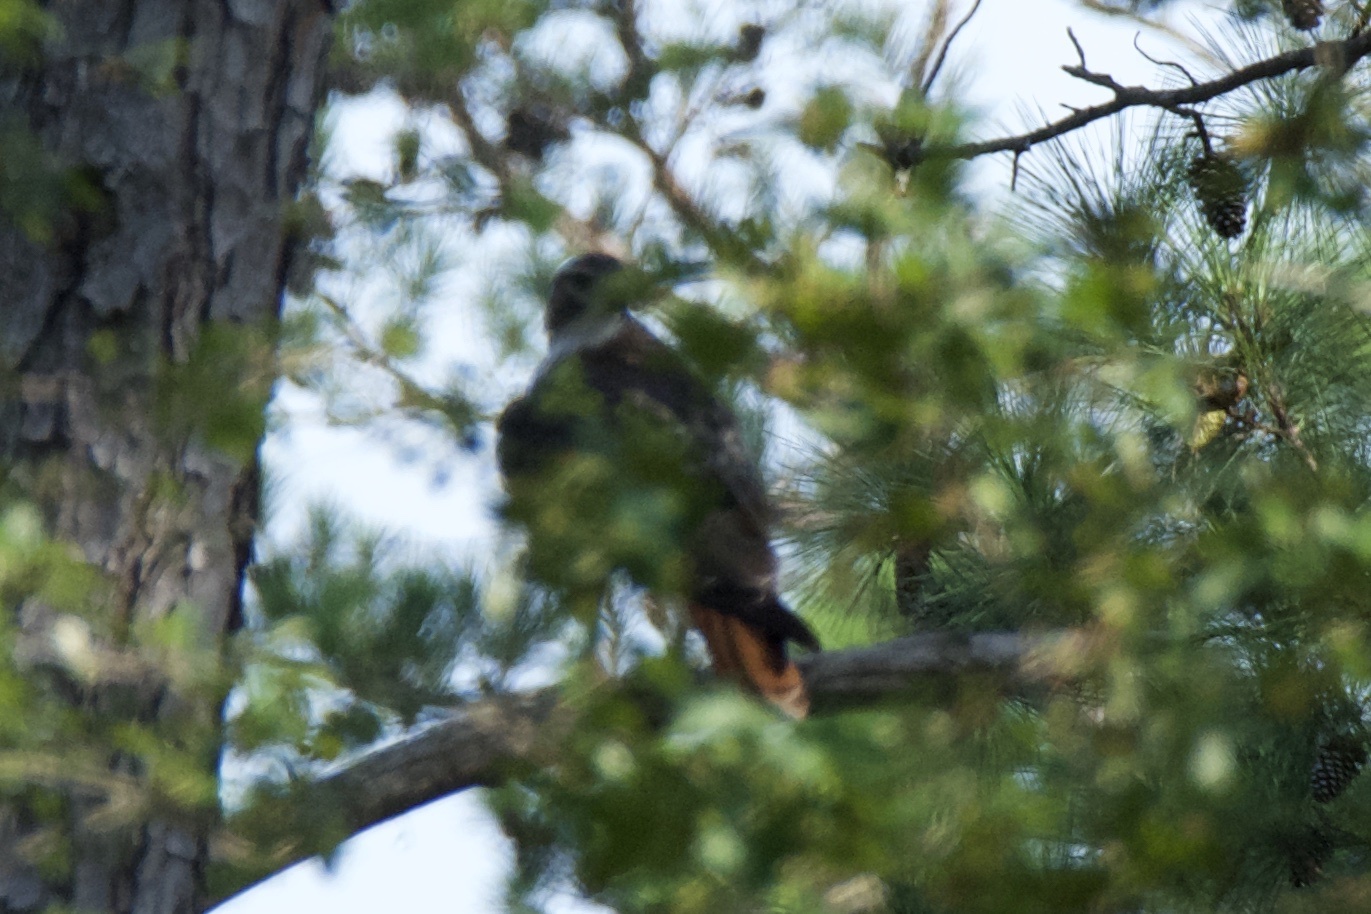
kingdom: Animalia
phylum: Chordata
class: Aves
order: Accipitriformes
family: Accipitridae
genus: Buteo
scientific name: Buteo jamaicensis
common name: Red-tailed hawk
